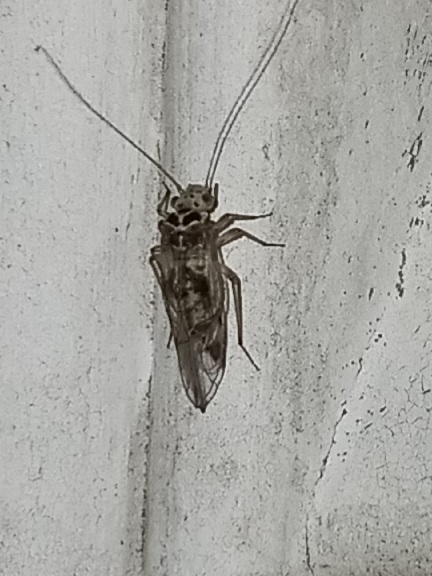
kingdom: Animalia
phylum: Arthropoda
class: Insecta
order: Psocodea
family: Psocidae
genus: Metylophorus
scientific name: Metylophorus novaescotiae
